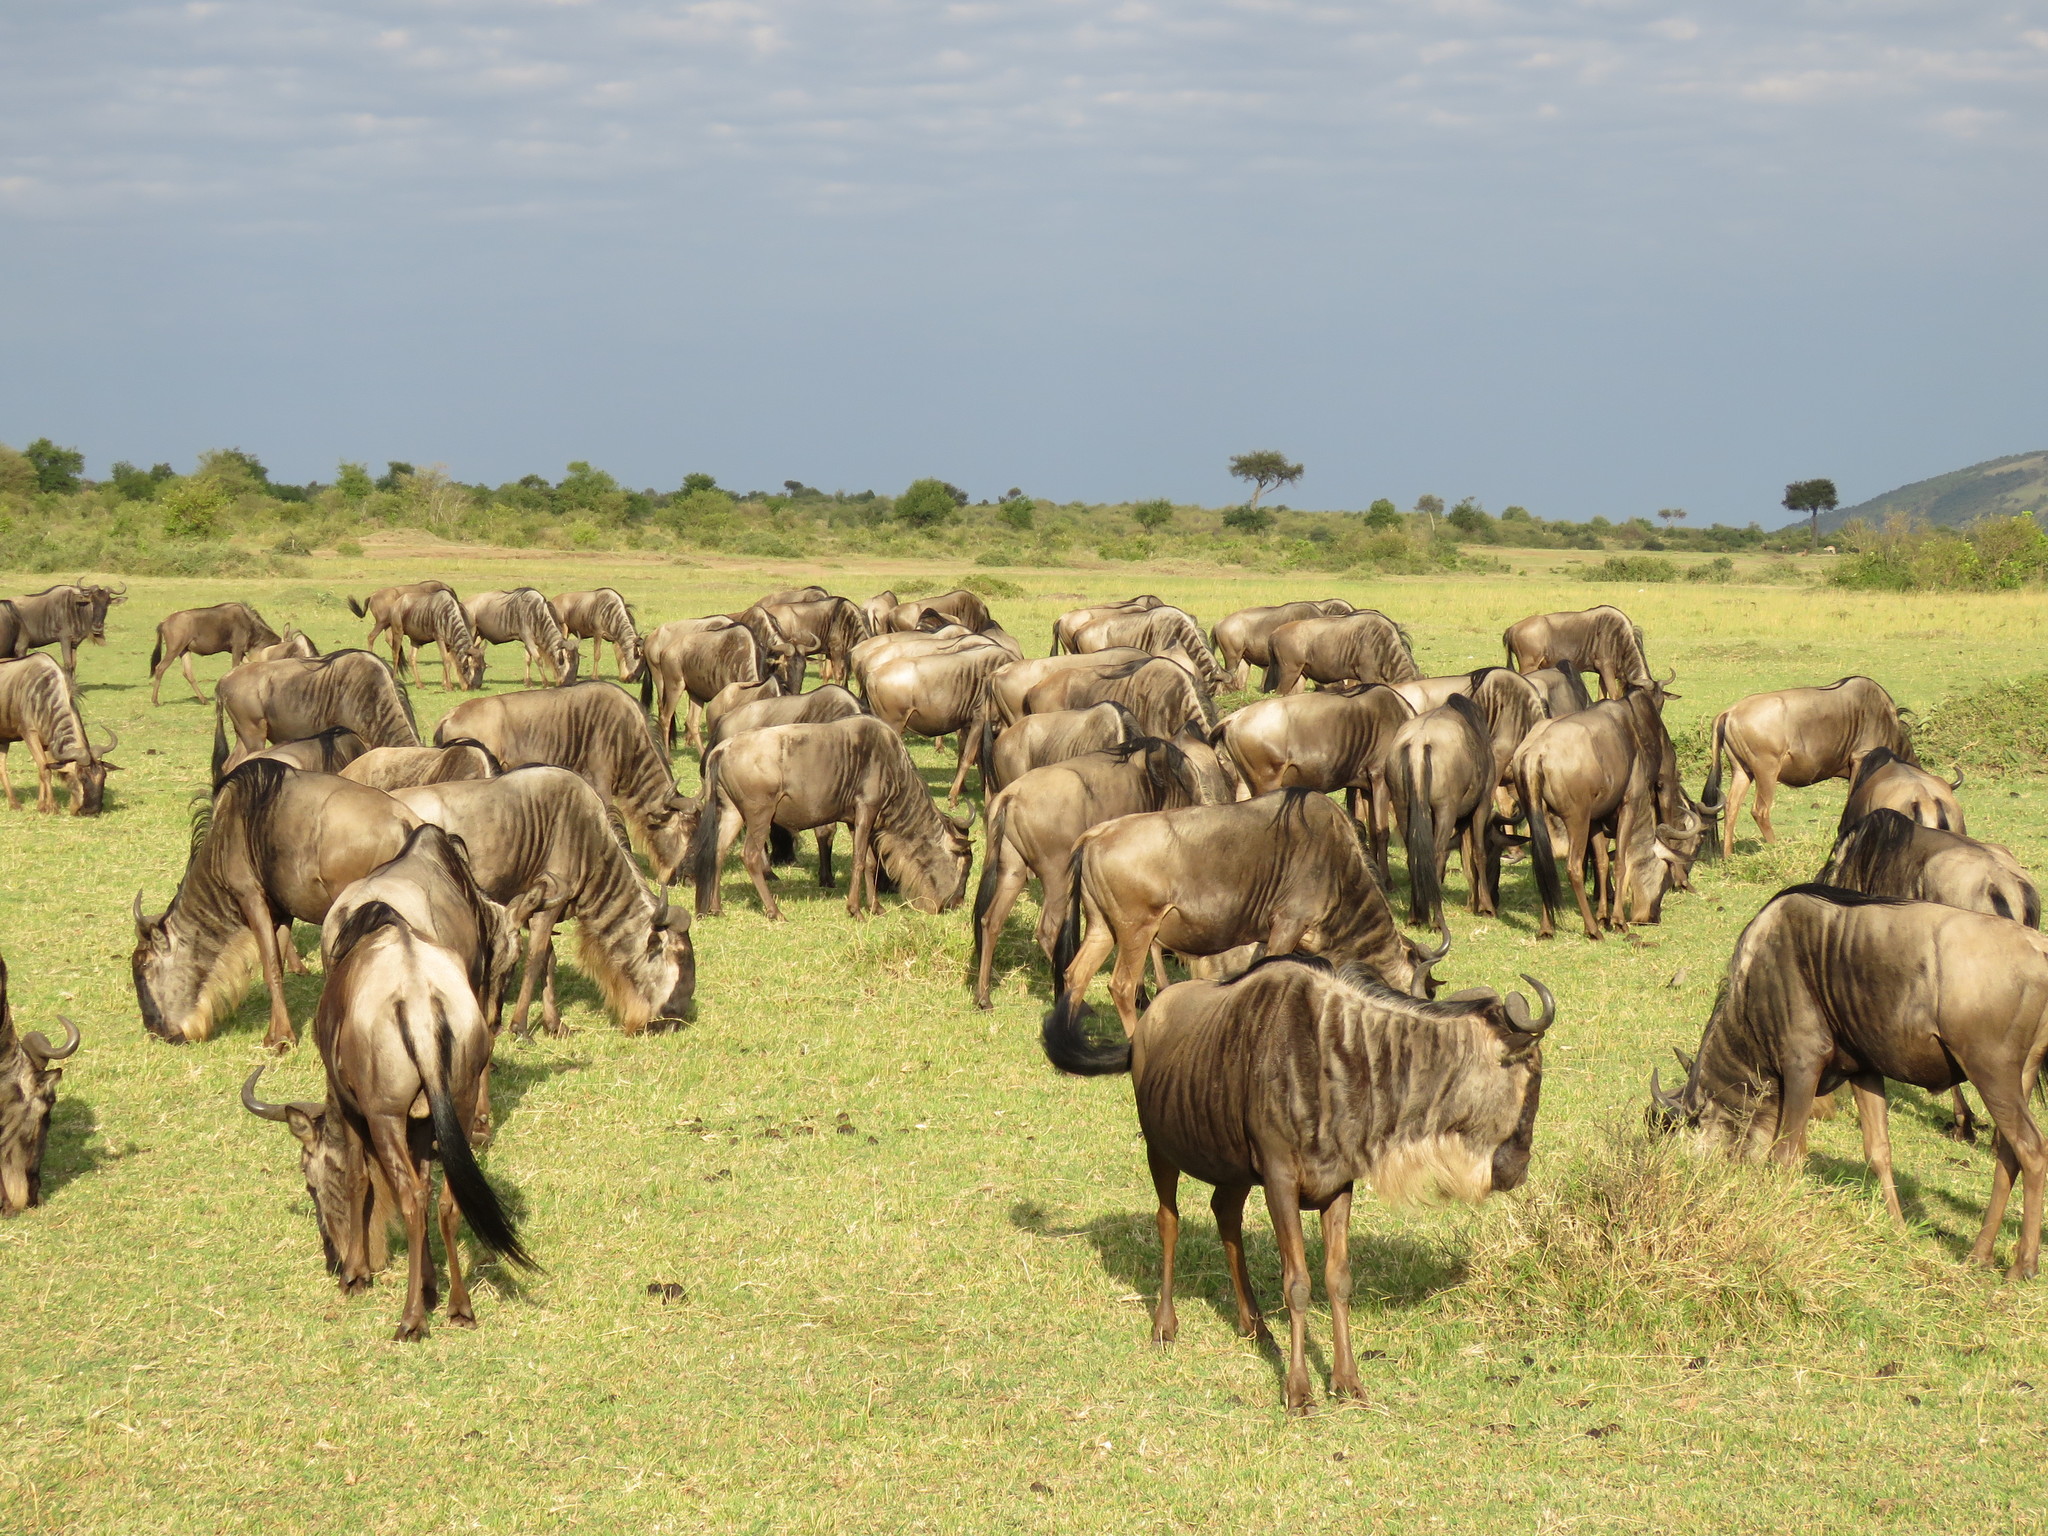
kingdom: Animalia
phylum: Chordata
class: Mammalia
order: Artiodactyla
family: Bovidae
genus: Connochaetes
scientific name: Connochaetes taurinus
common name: Blue wildebeest
